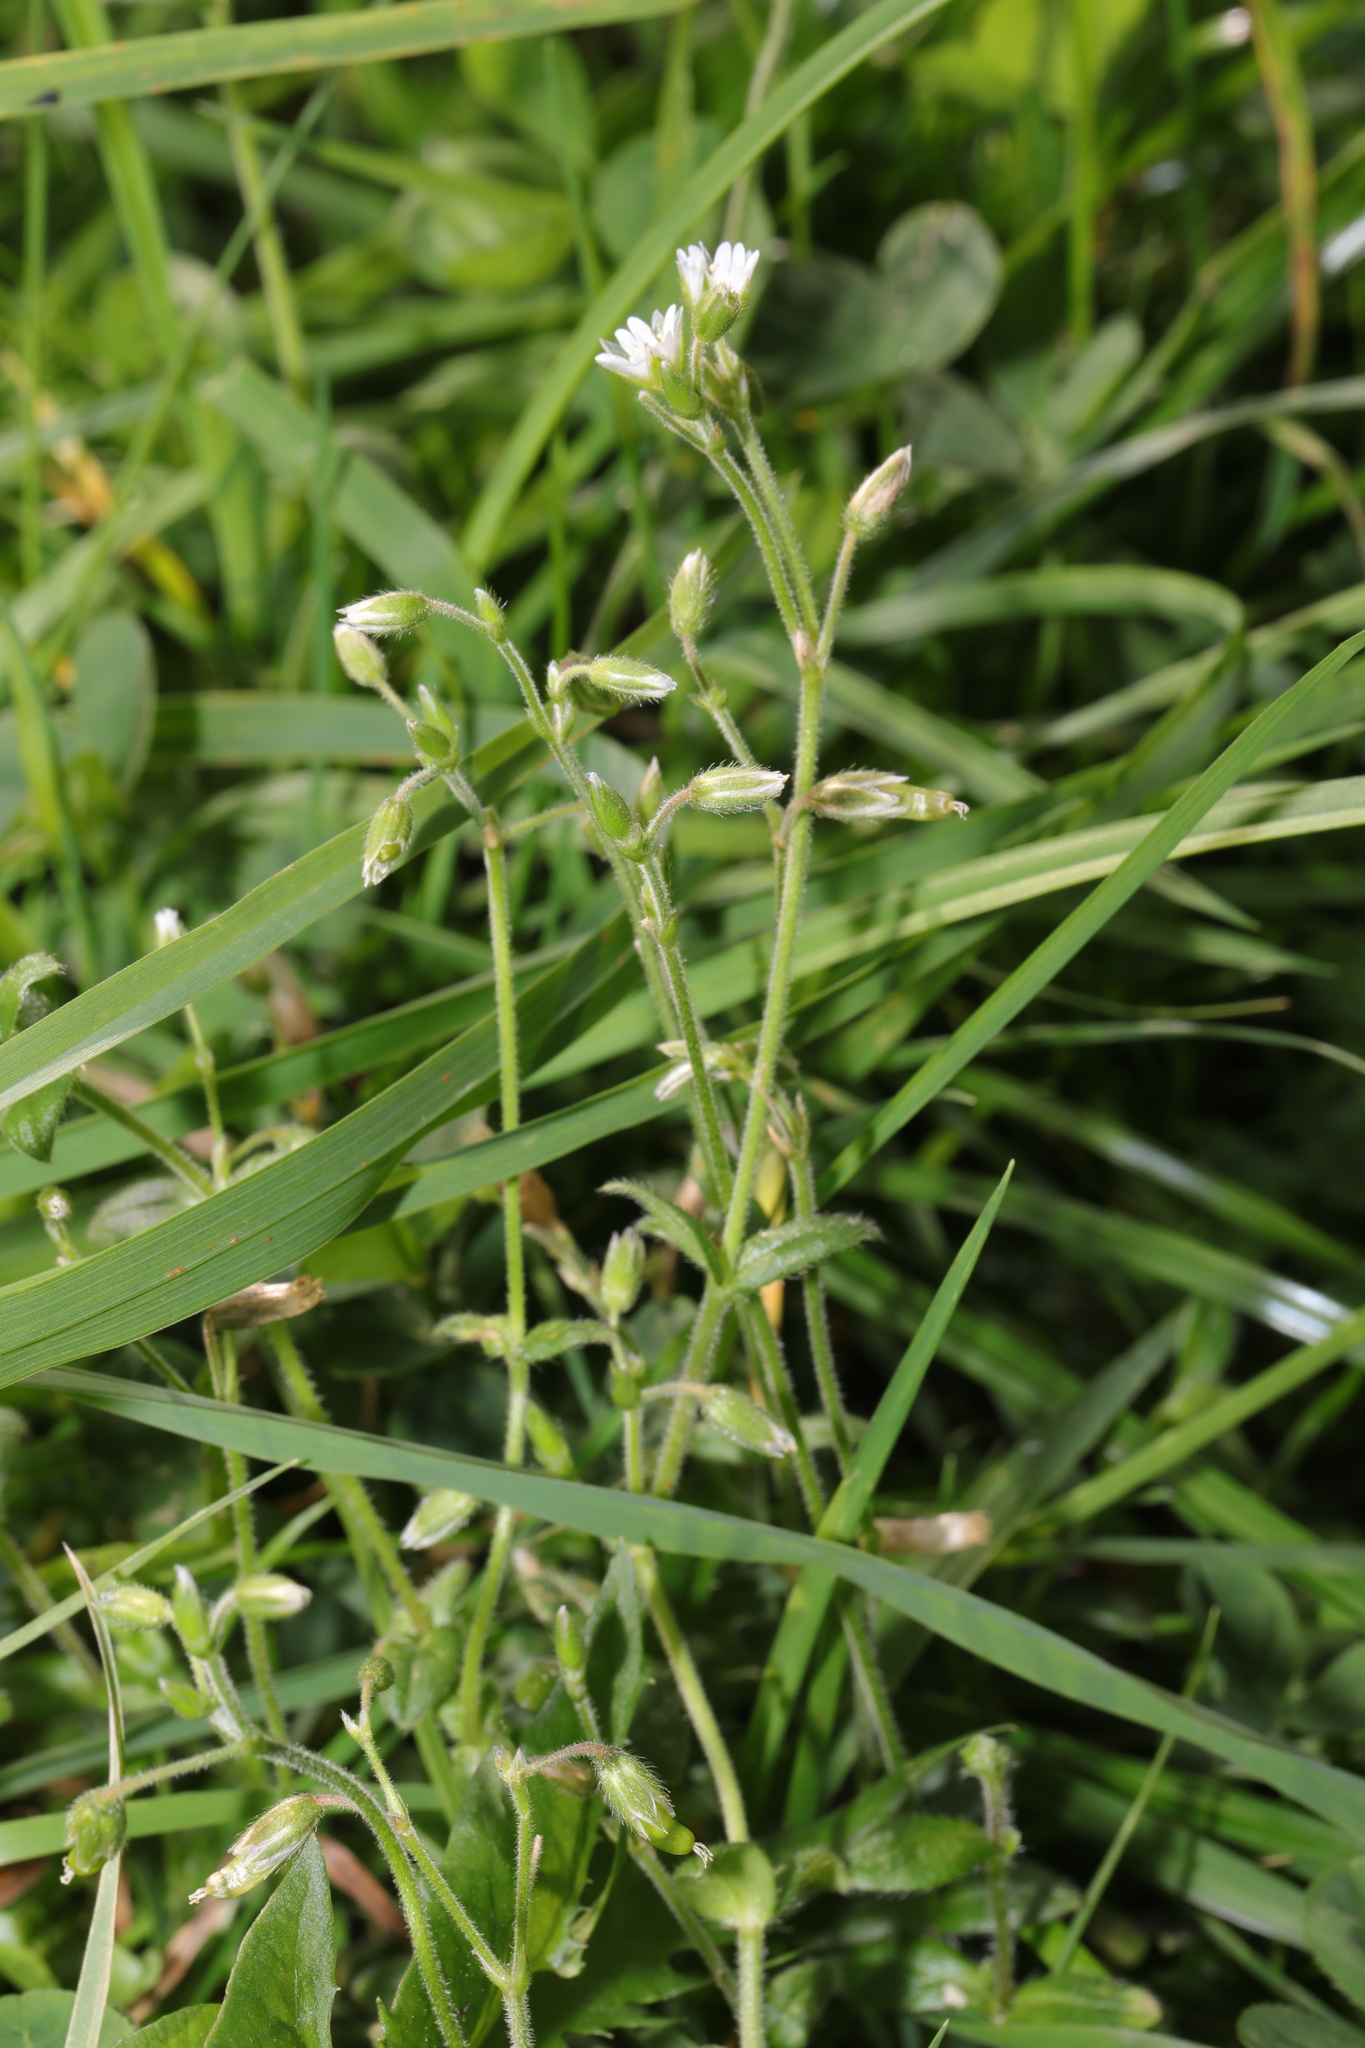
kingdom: Plantae
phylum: Tracheophyta
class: Magnoliopsida
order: Caryophyllales
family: Caryophyllaceae
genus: Cerastium
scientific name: Cerastium fontanum
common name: Common mouse-ear
